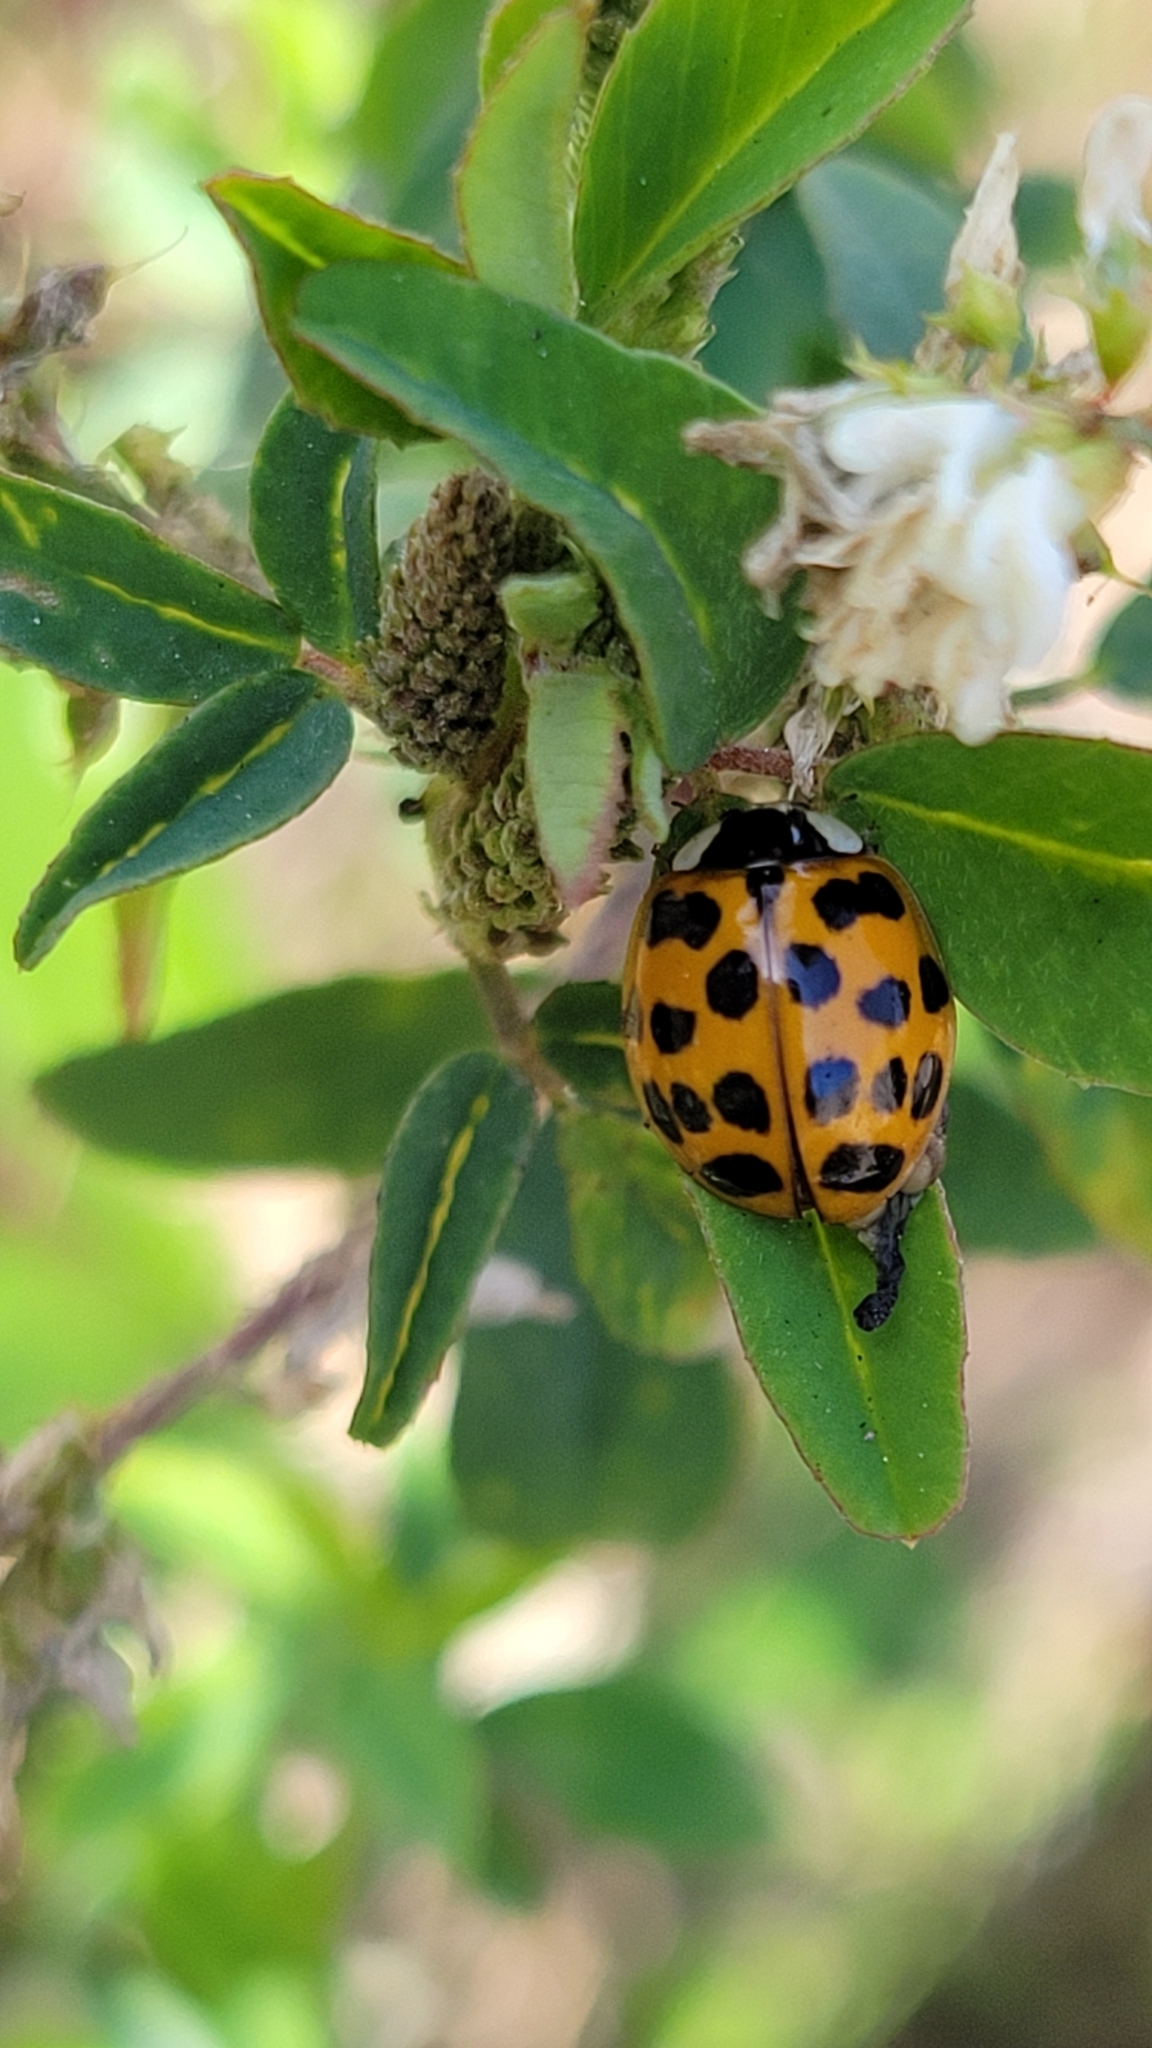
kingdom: Animalia
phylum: Arthropoda
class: Insecta
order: Coleoptera
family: Coccinellidae
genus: Harmonia
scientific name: Harmonia axyridis
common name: Harlequin ladybird
